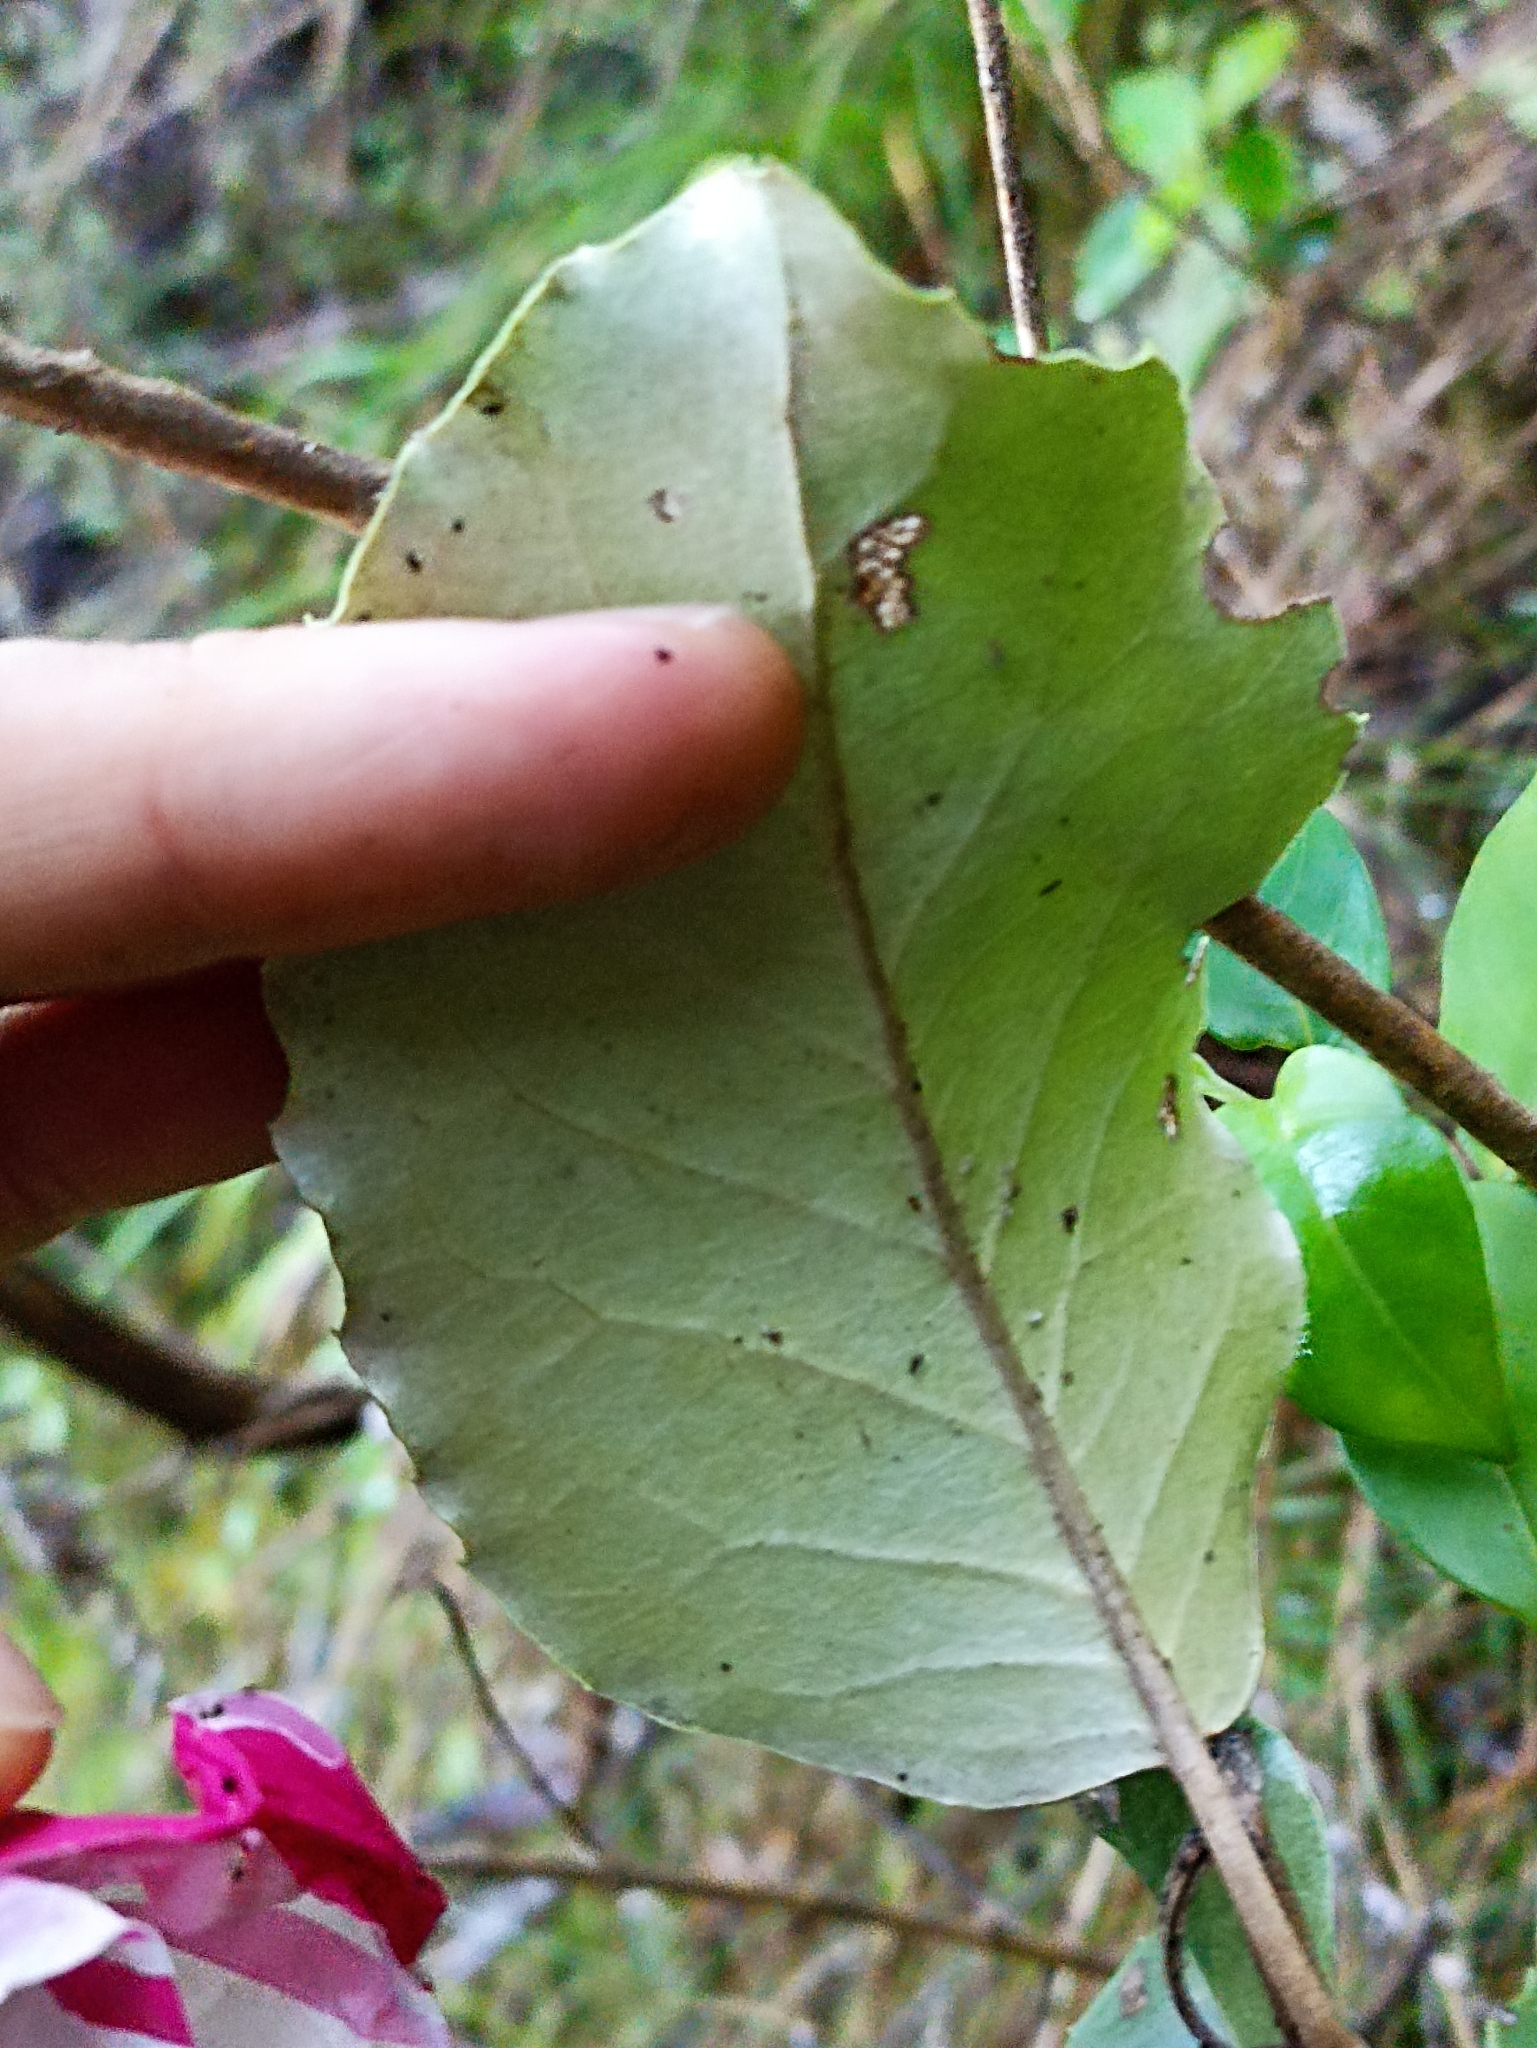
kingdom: Plantae
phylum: Tracheophyta
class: Magnoliopsida
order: Asterales
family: Asteraceae
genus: Olearia
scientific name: Olearia furfuracea
